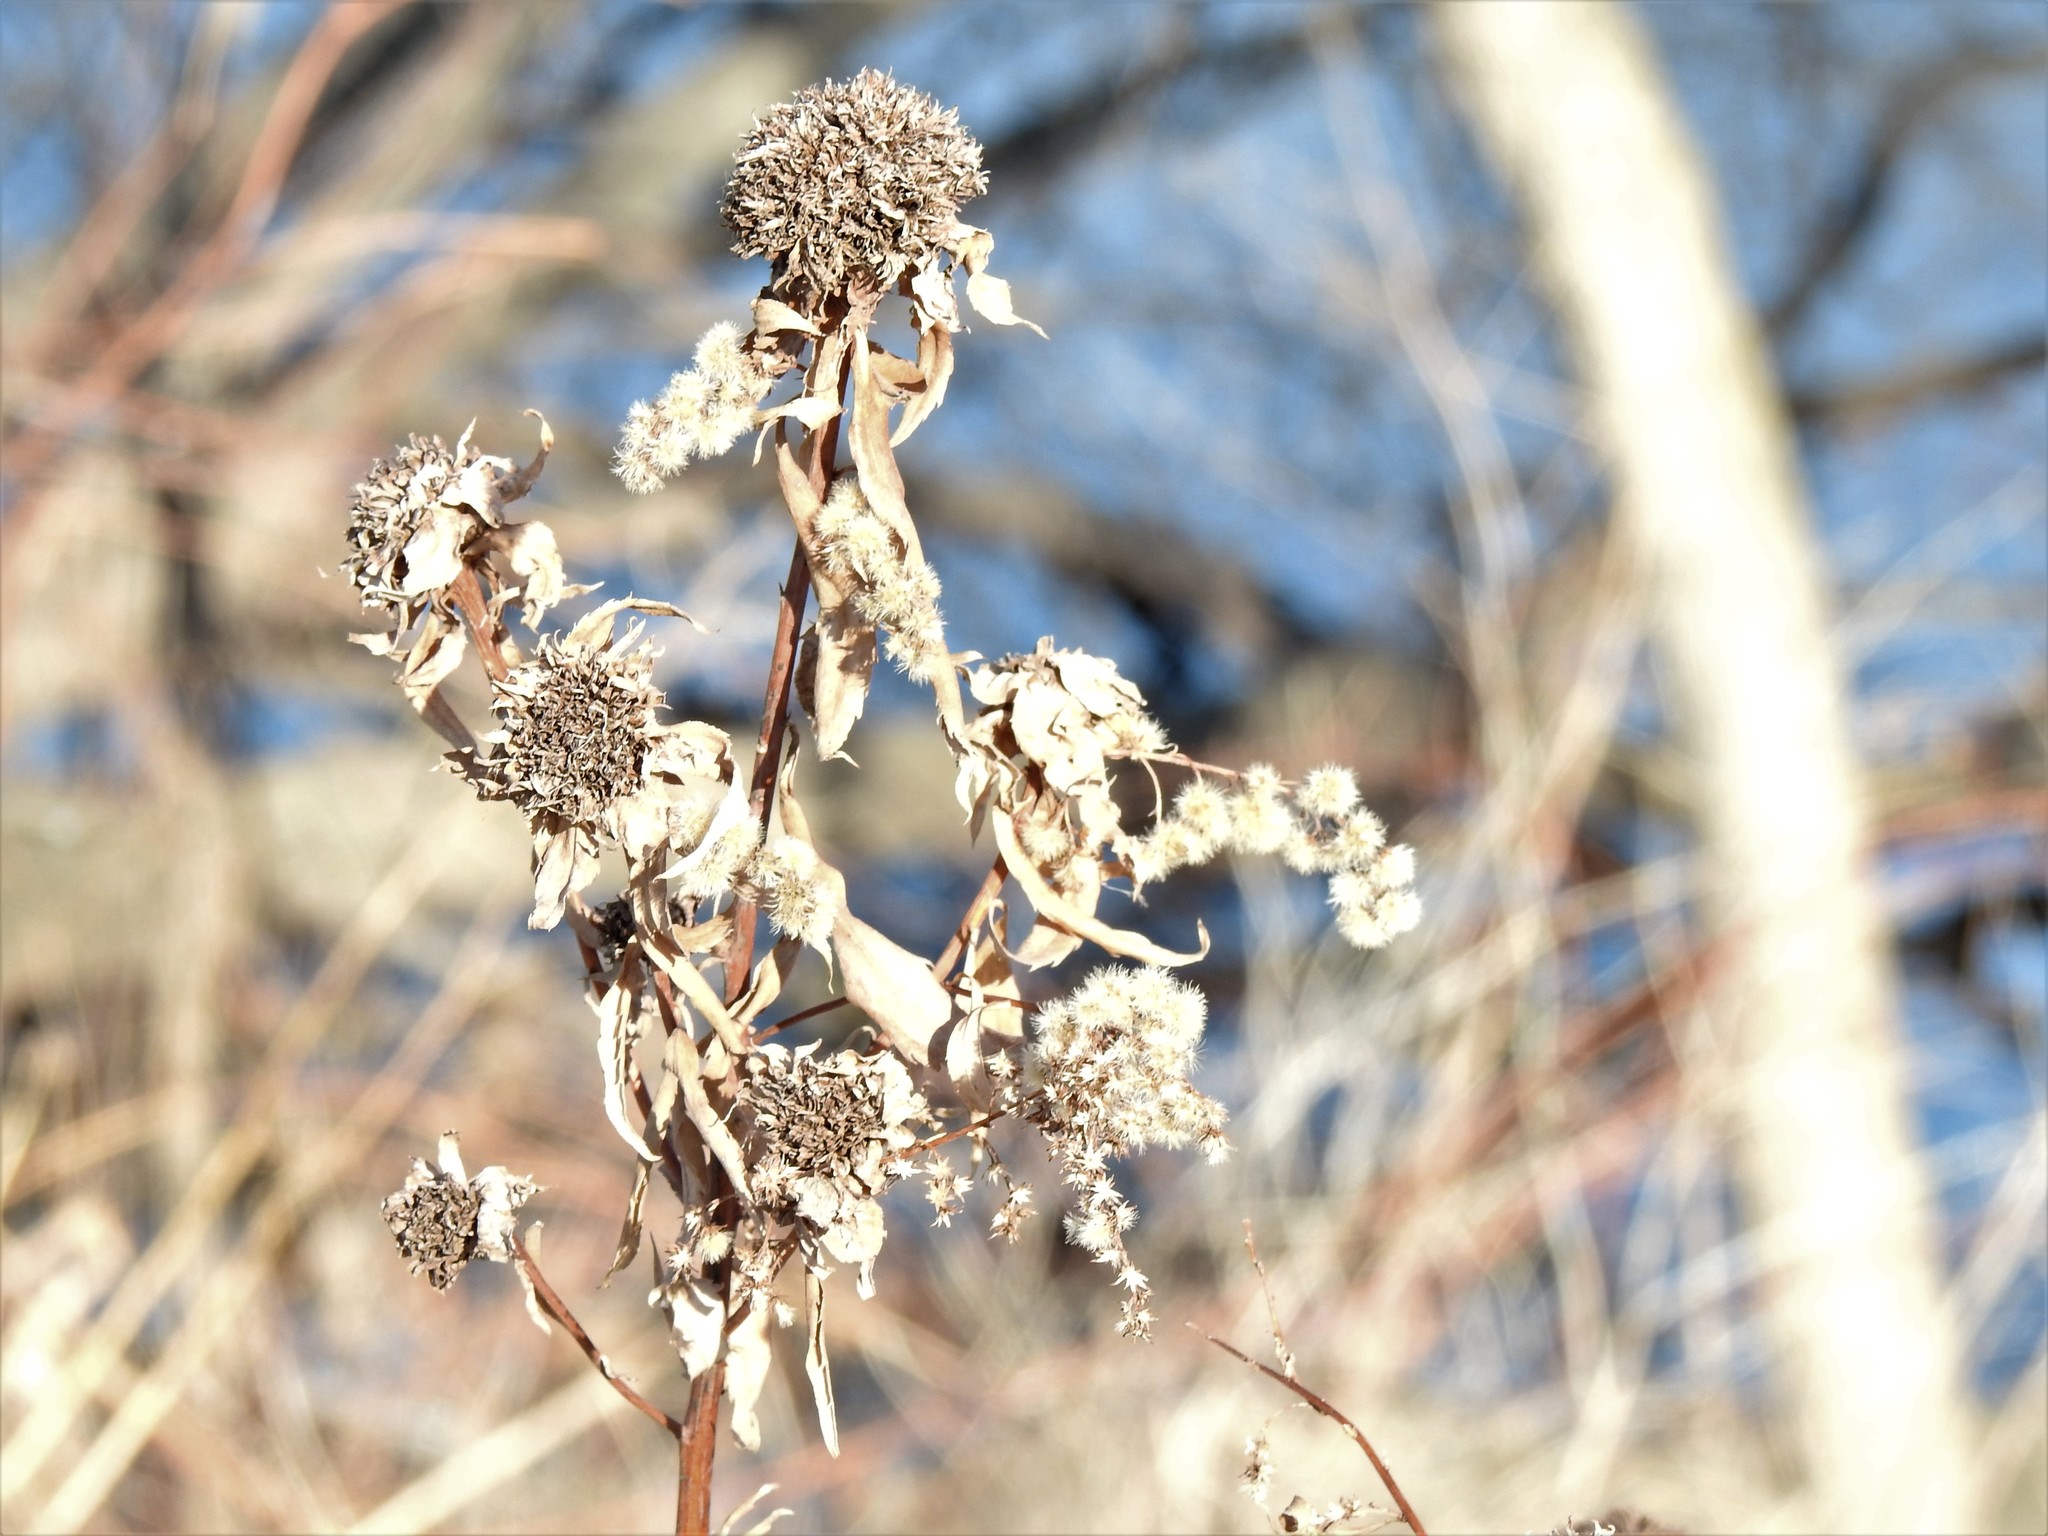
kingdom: Plantae
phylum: Tracheophyta
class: Magnoliopsida
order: Asterales
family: Asteraceae
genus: Solidago
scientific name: Solidago
